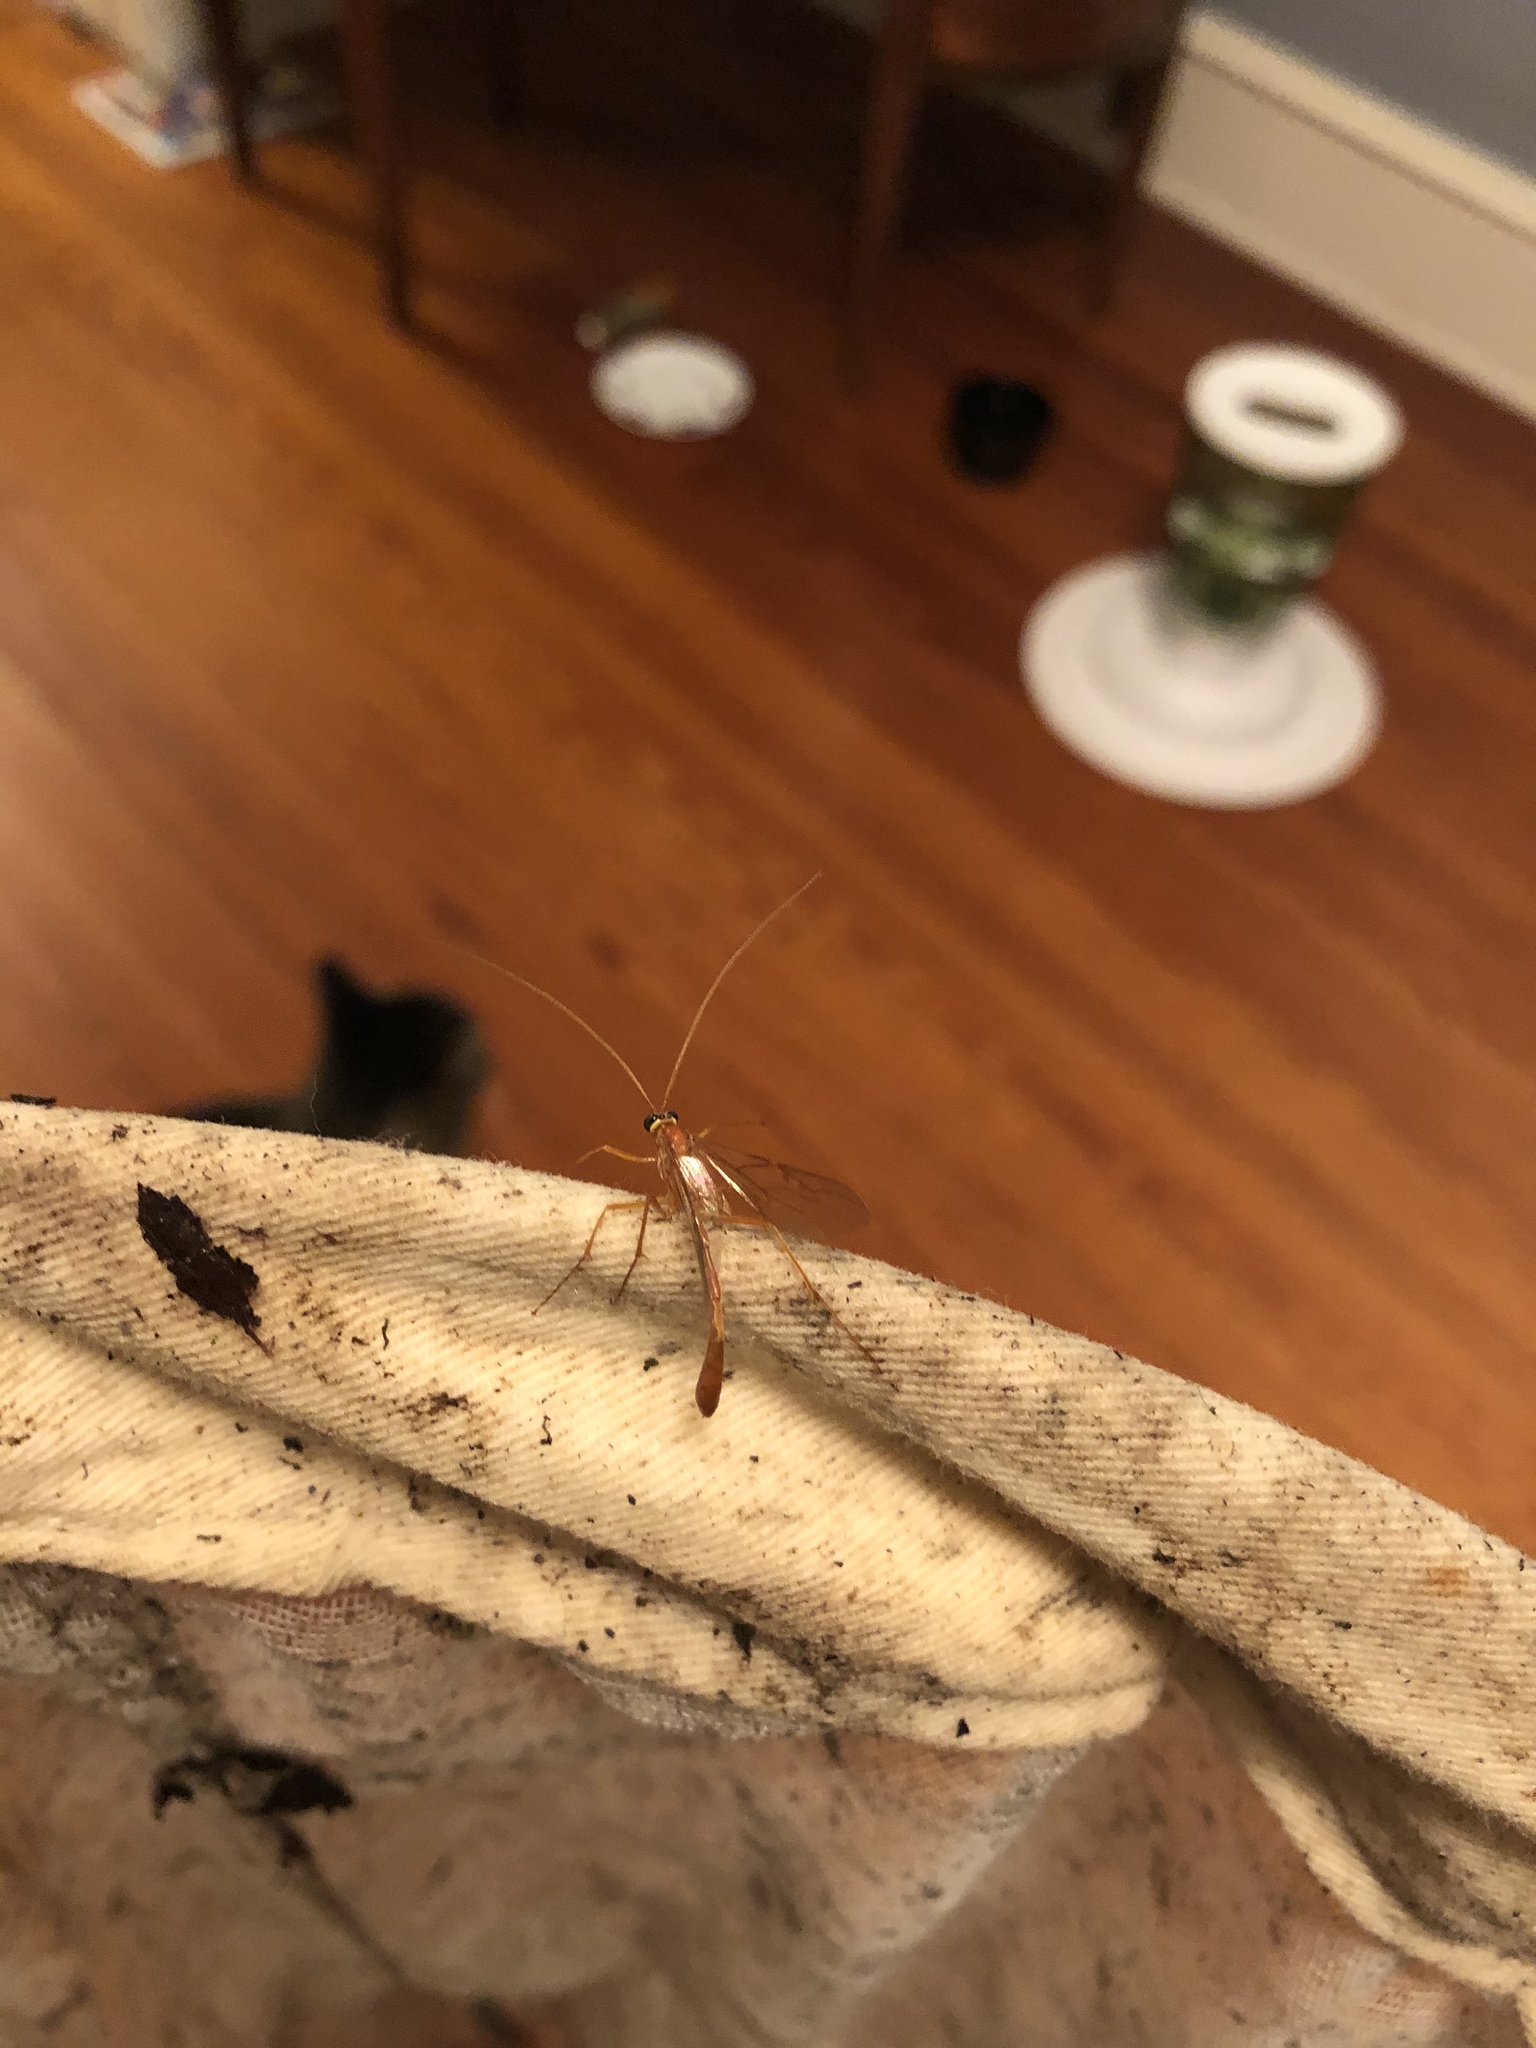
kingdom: Animalia
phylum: Arthropoda
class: Insecta
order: Hymenoptera
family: Ichneumonidae
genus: Enicospilus
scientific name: Enicospilus purgatus
